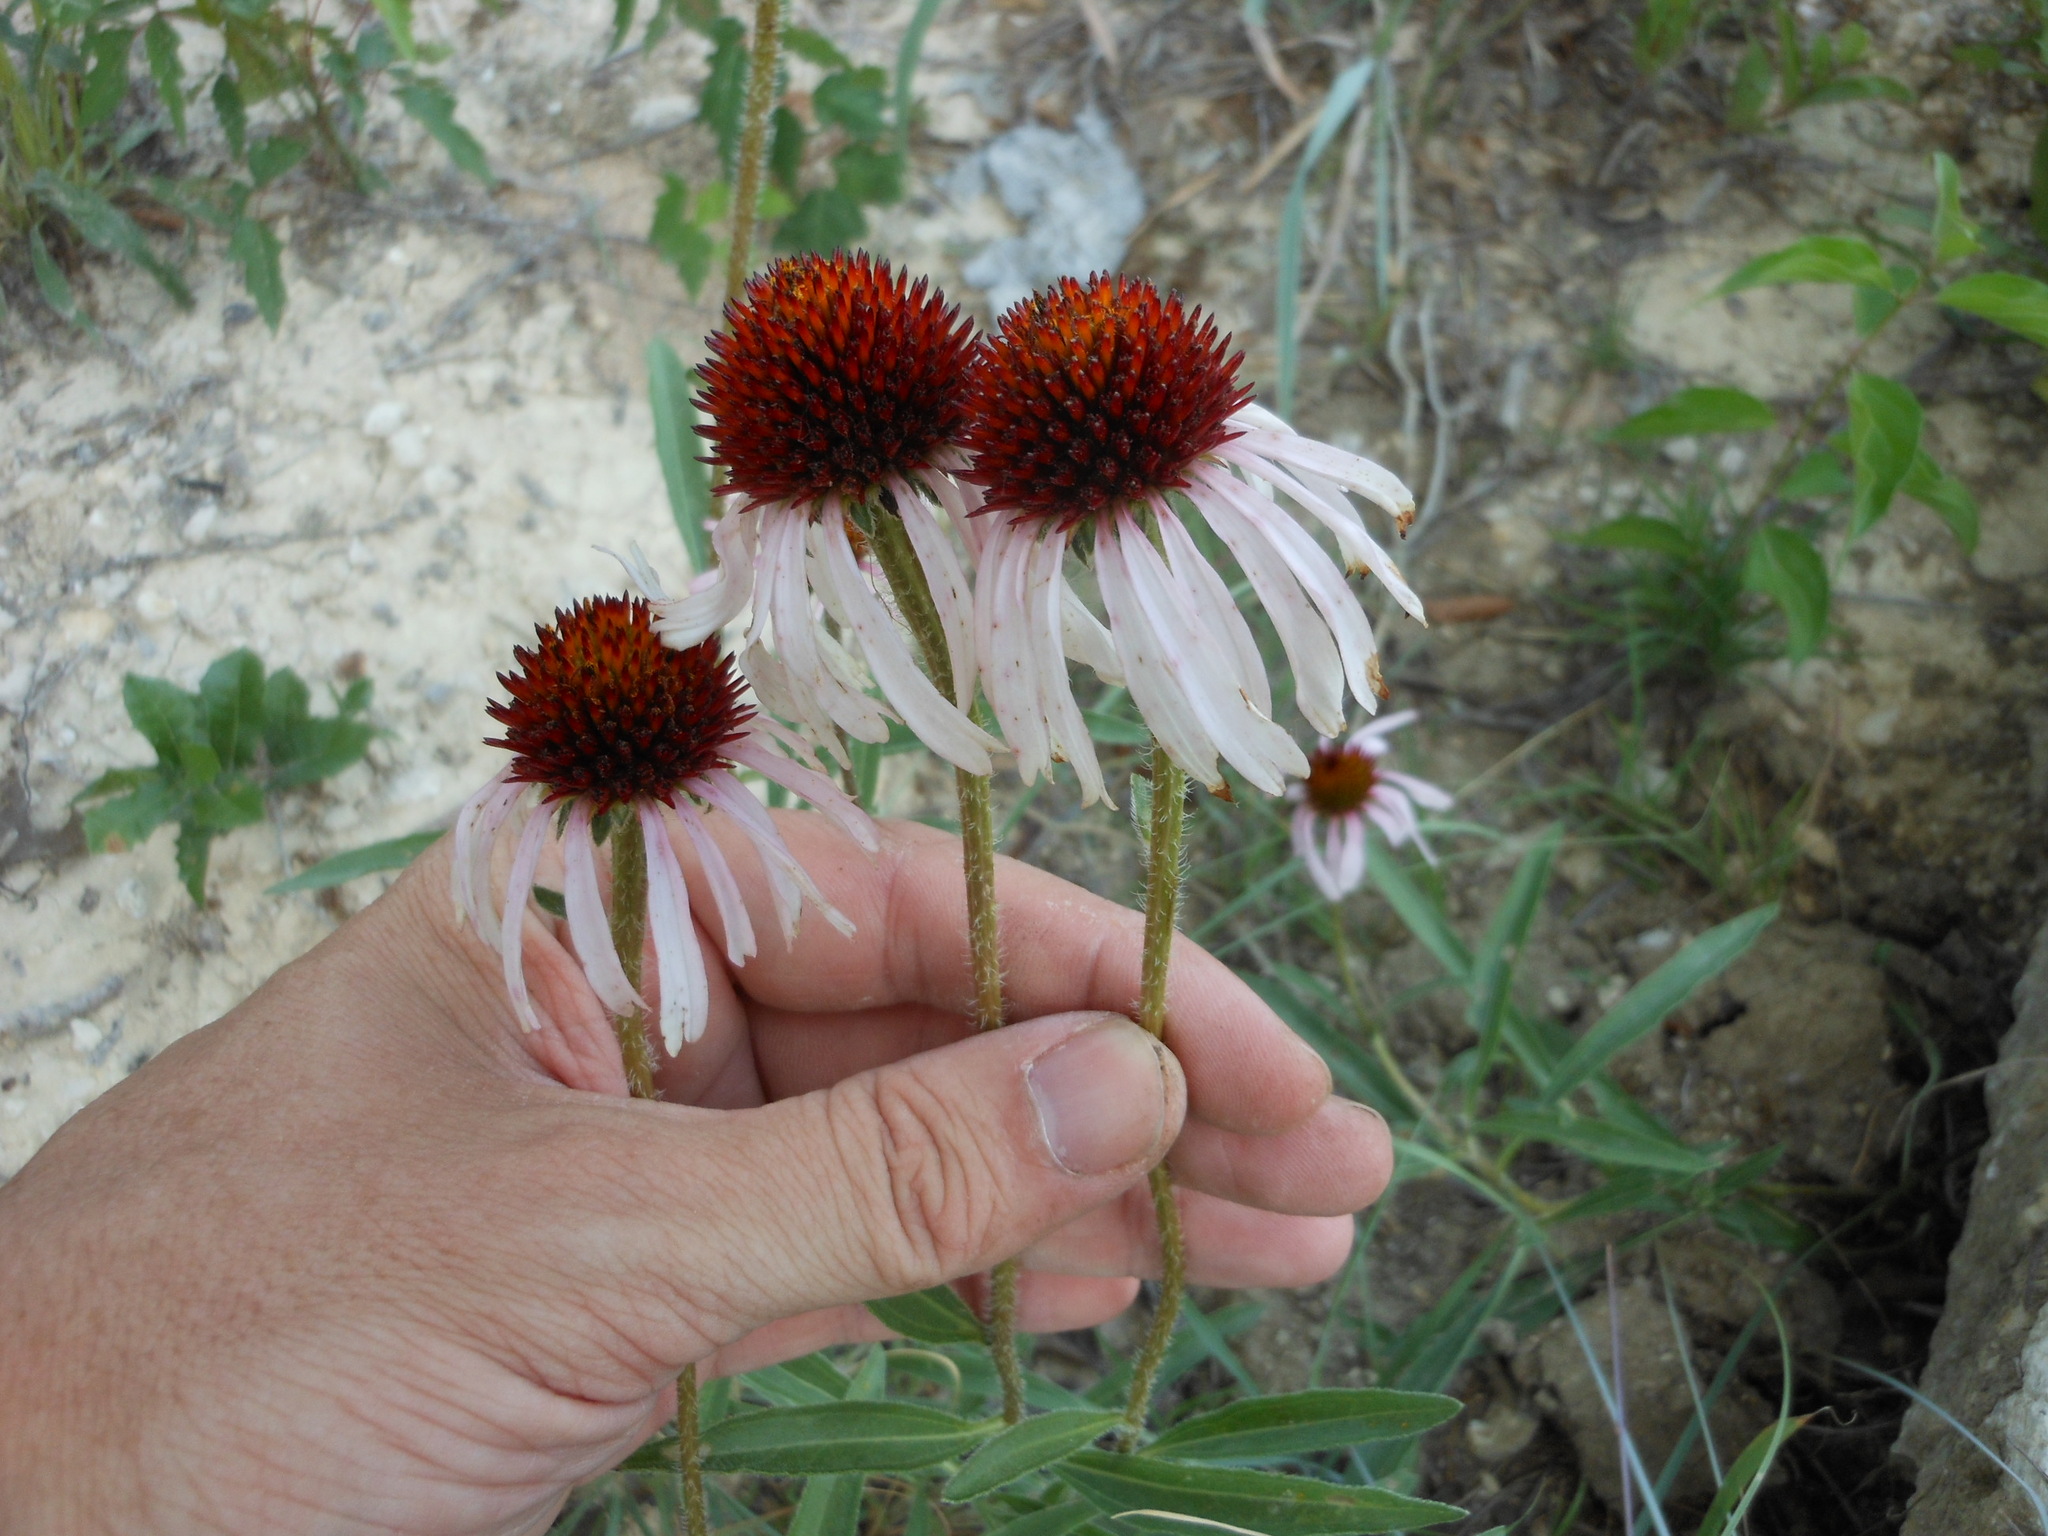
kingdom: Plantae
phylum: Tracheophyta
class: Magnoliopsida
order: Asterales
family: Asteraceae
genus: Echinacea
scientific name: Echinacea angustifolia
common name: Black-sampson echinacea
